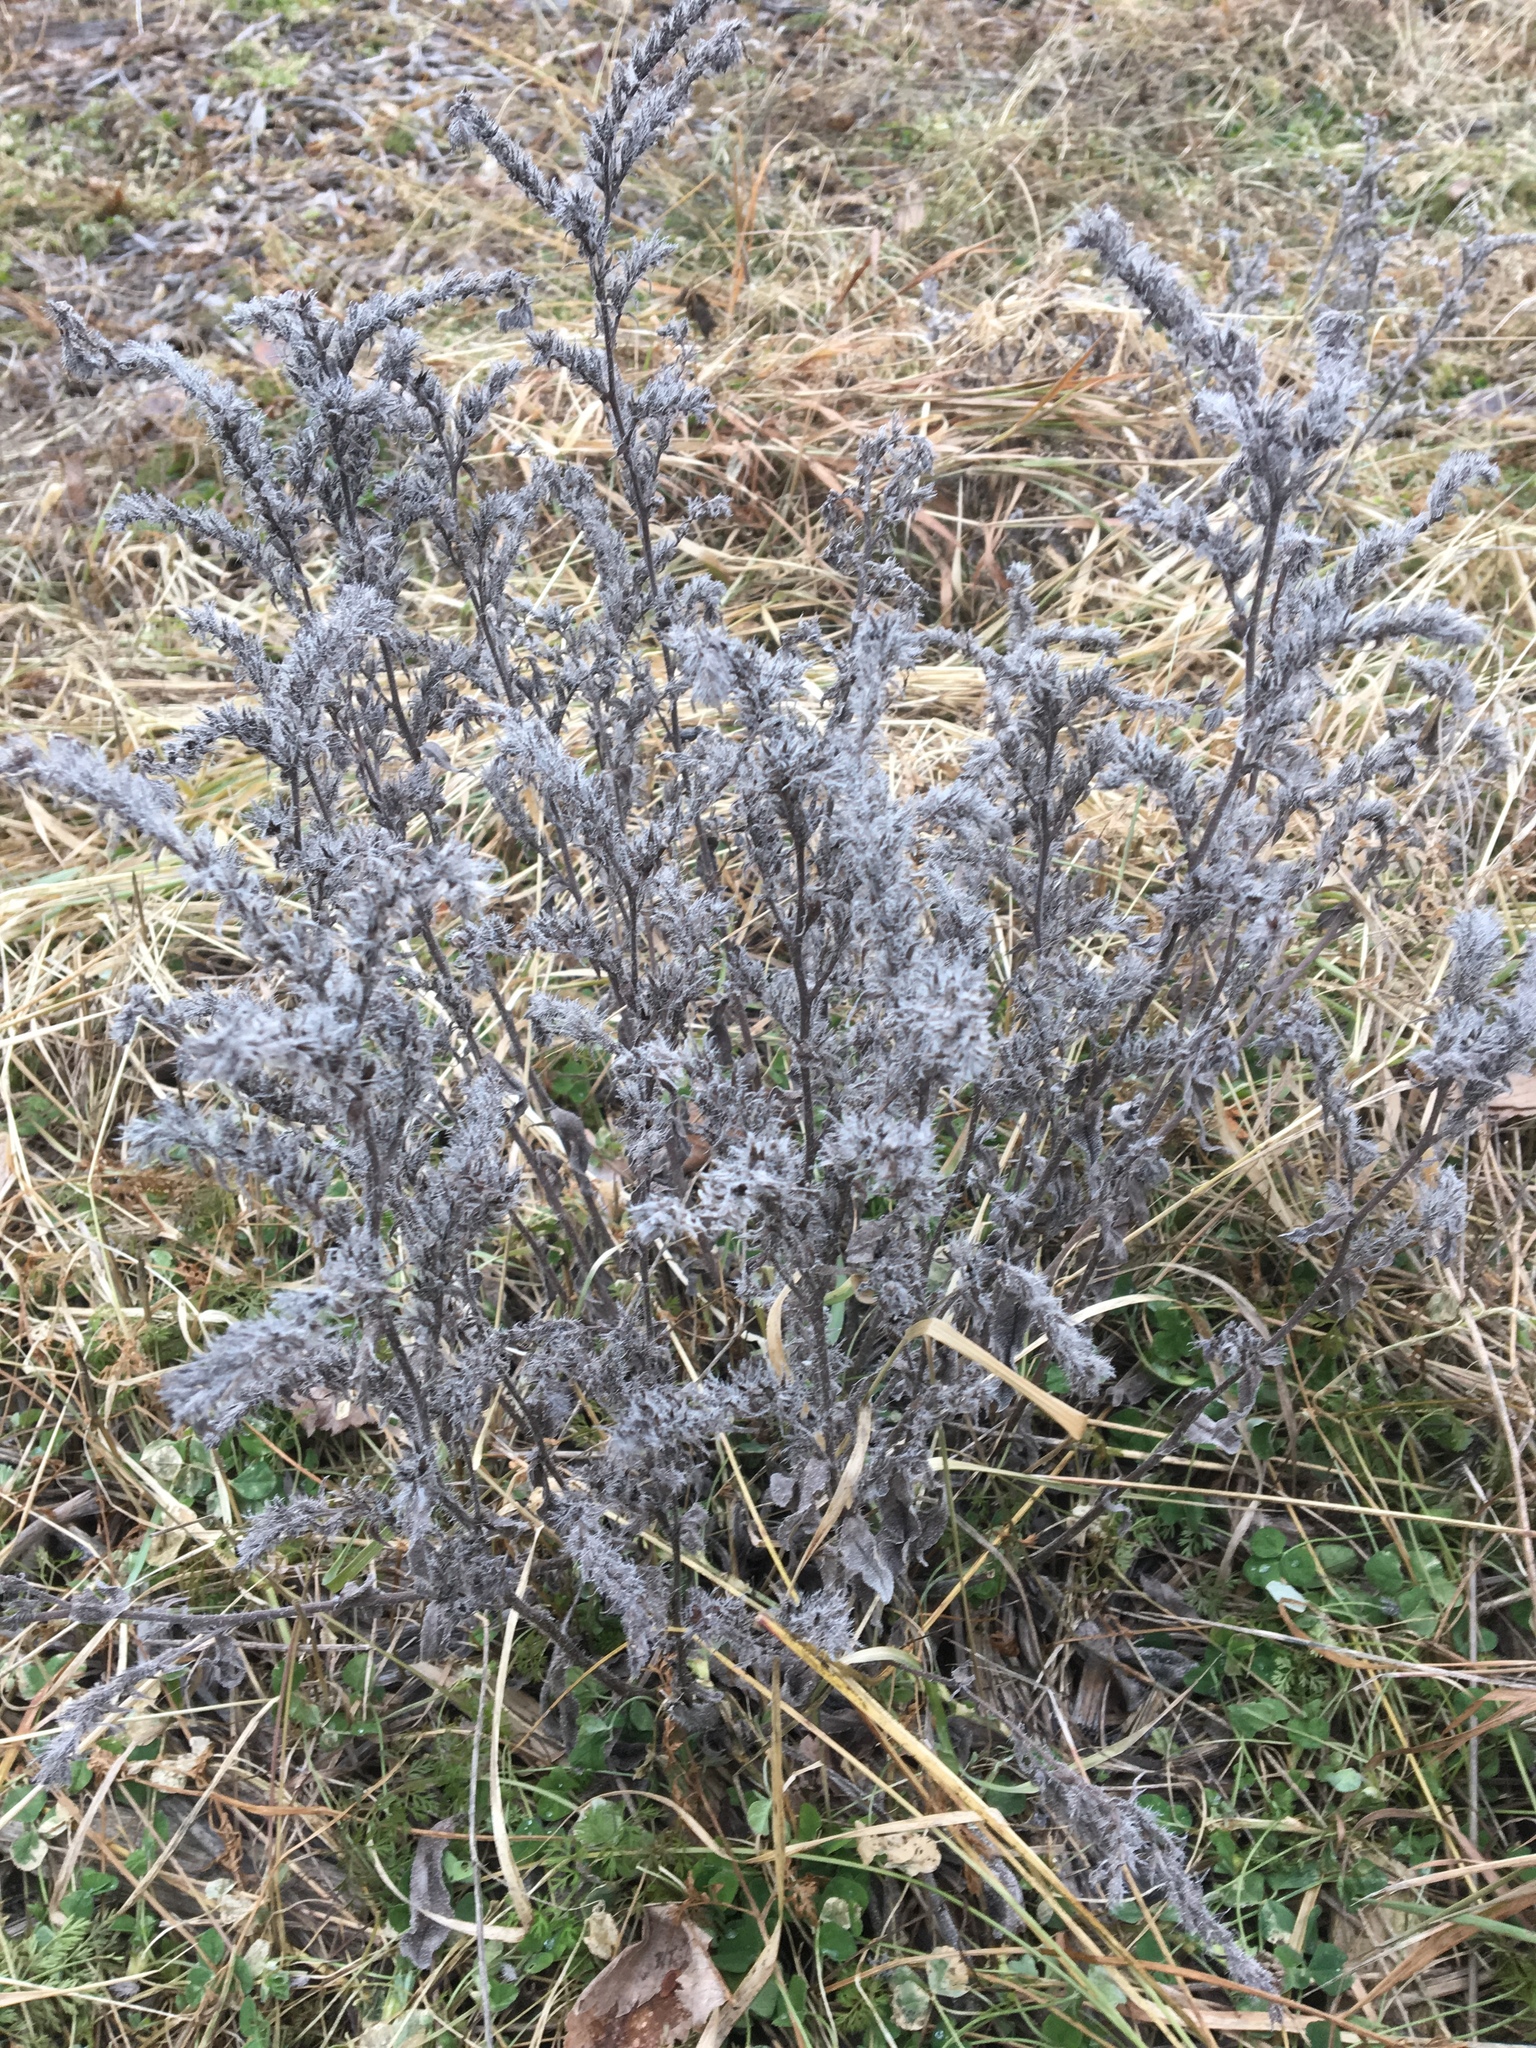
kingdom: Plantae
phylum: Tracheophyta
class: Magnoliopsida
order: Boraginales
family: Boraginaceae
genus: Echium
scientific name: Echium vulgare
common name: Common viper's bugloss
